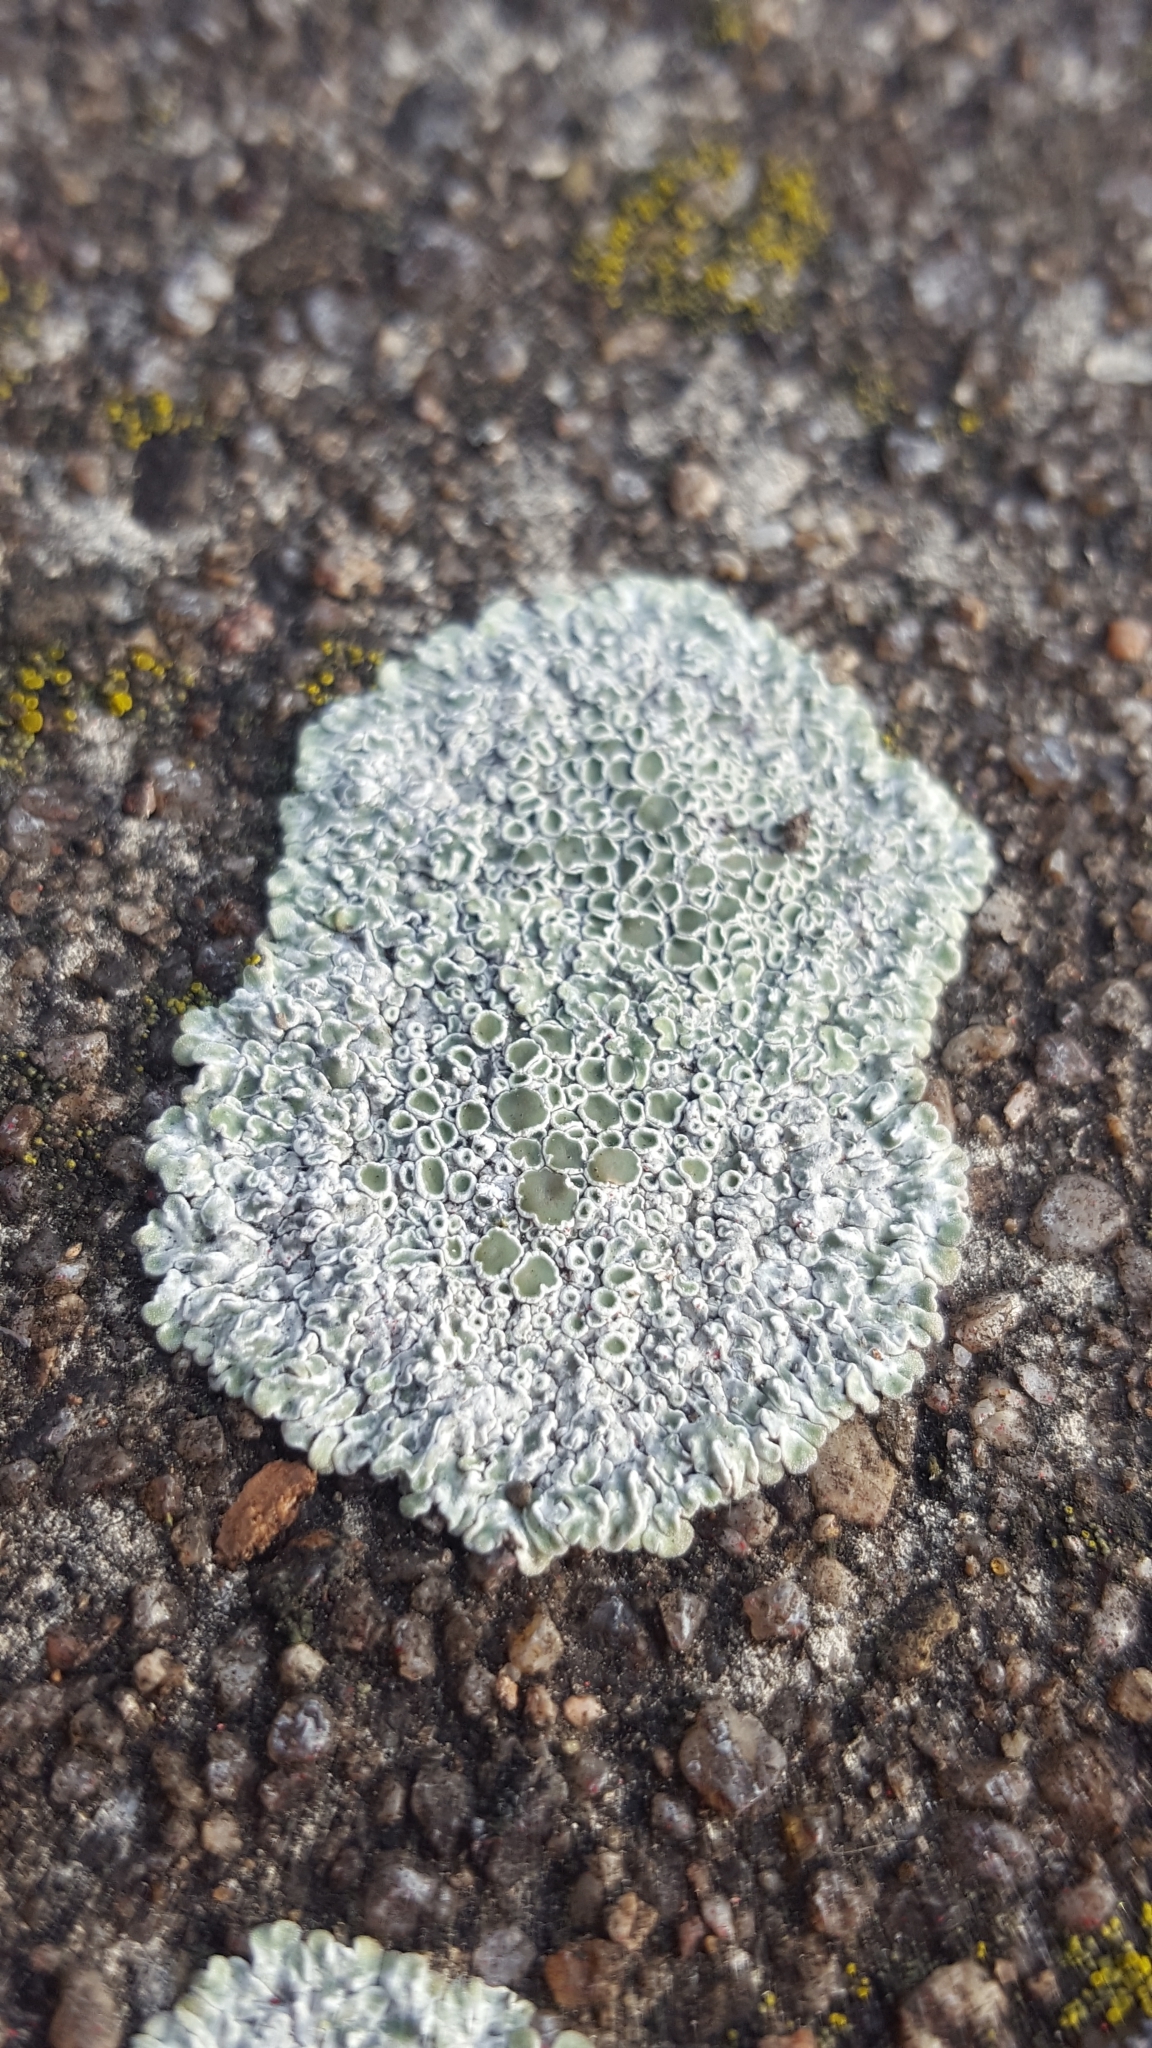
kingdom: Fungi
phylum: Ascomycota
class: Lecanoromycetes
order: Lecanorales
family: Lecanoraceae
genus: Protoparmeliopsis
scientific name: Protoparmeliopsis muralis
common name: Stonewall rim lichen
